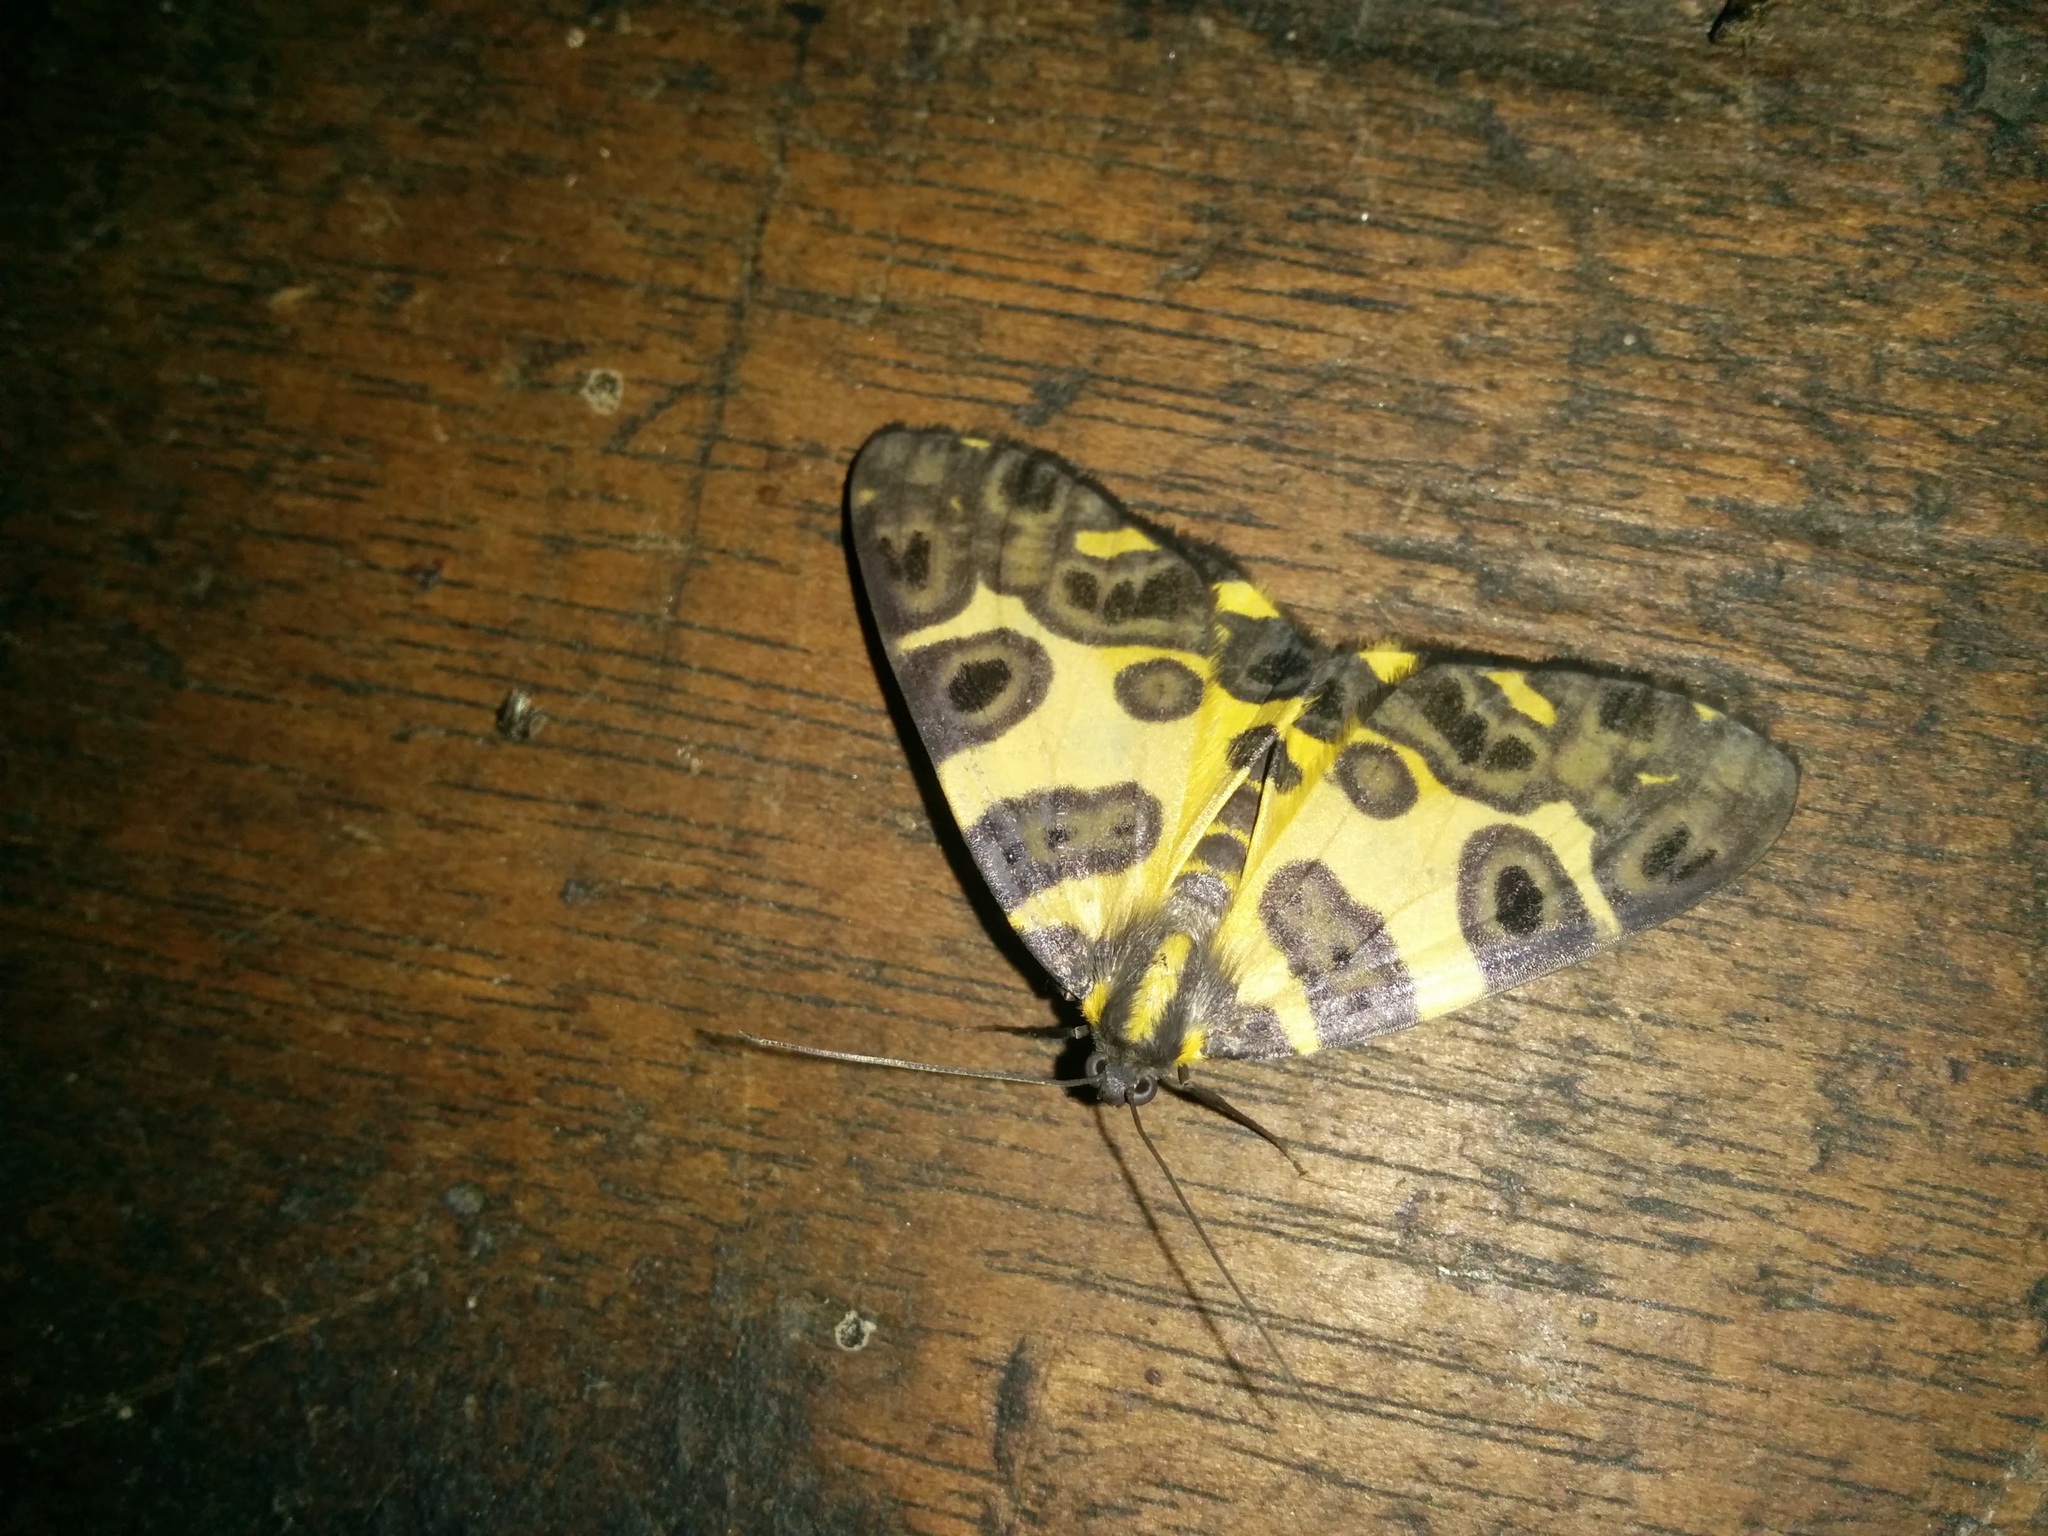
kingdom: Animalia
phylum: Arthropoda
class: Insecta
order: Lepidoptera
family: Geometridae
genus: Pantherodes
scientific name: Pantherodes pardalaria
